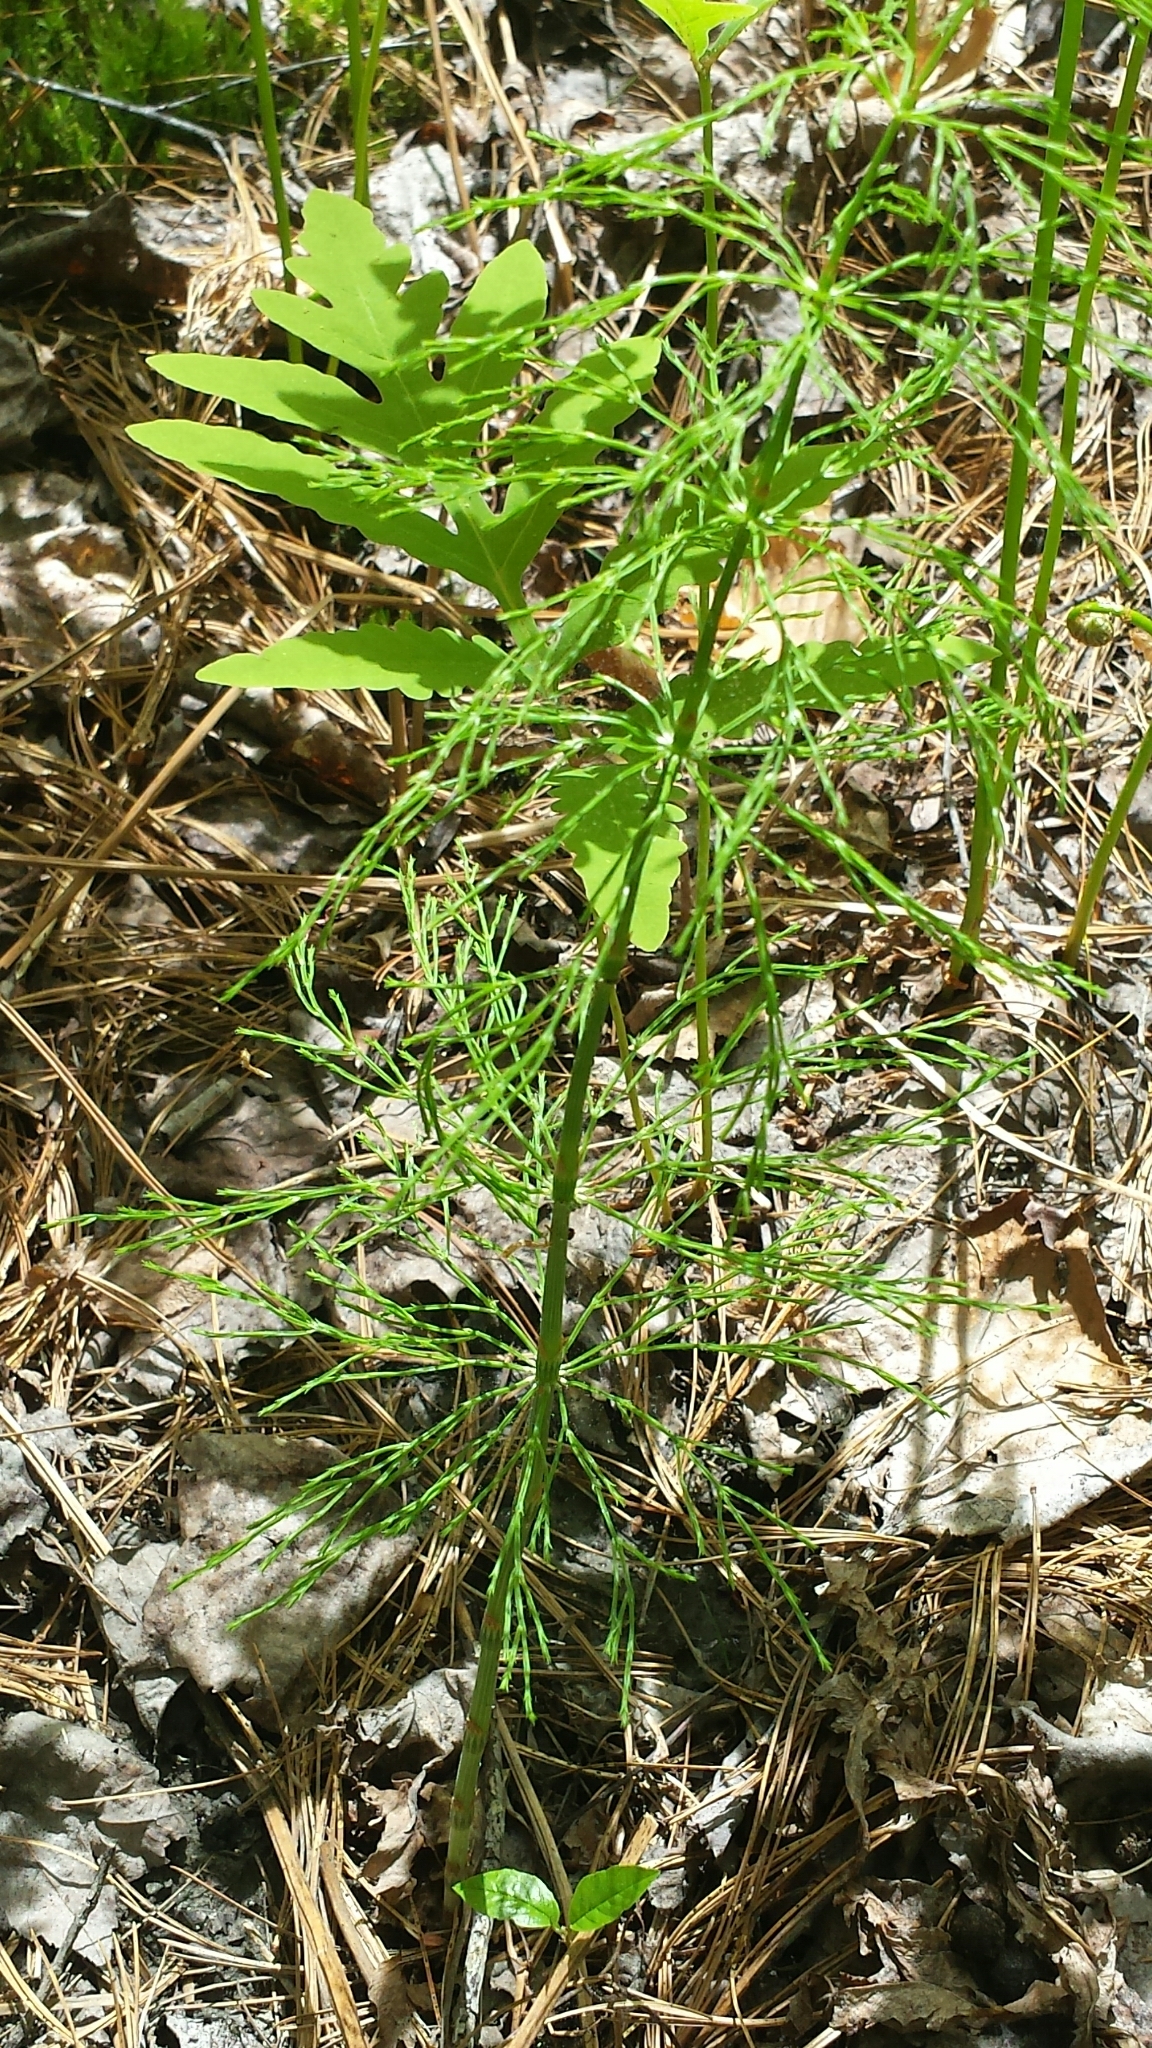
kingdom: Plantae
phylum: Tracheophyta
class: Polypodiopsida
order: Equisetales
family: Equisetaceae
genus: Equisetum
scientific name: Equisetum sylvaticum
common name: Wood horsetail
